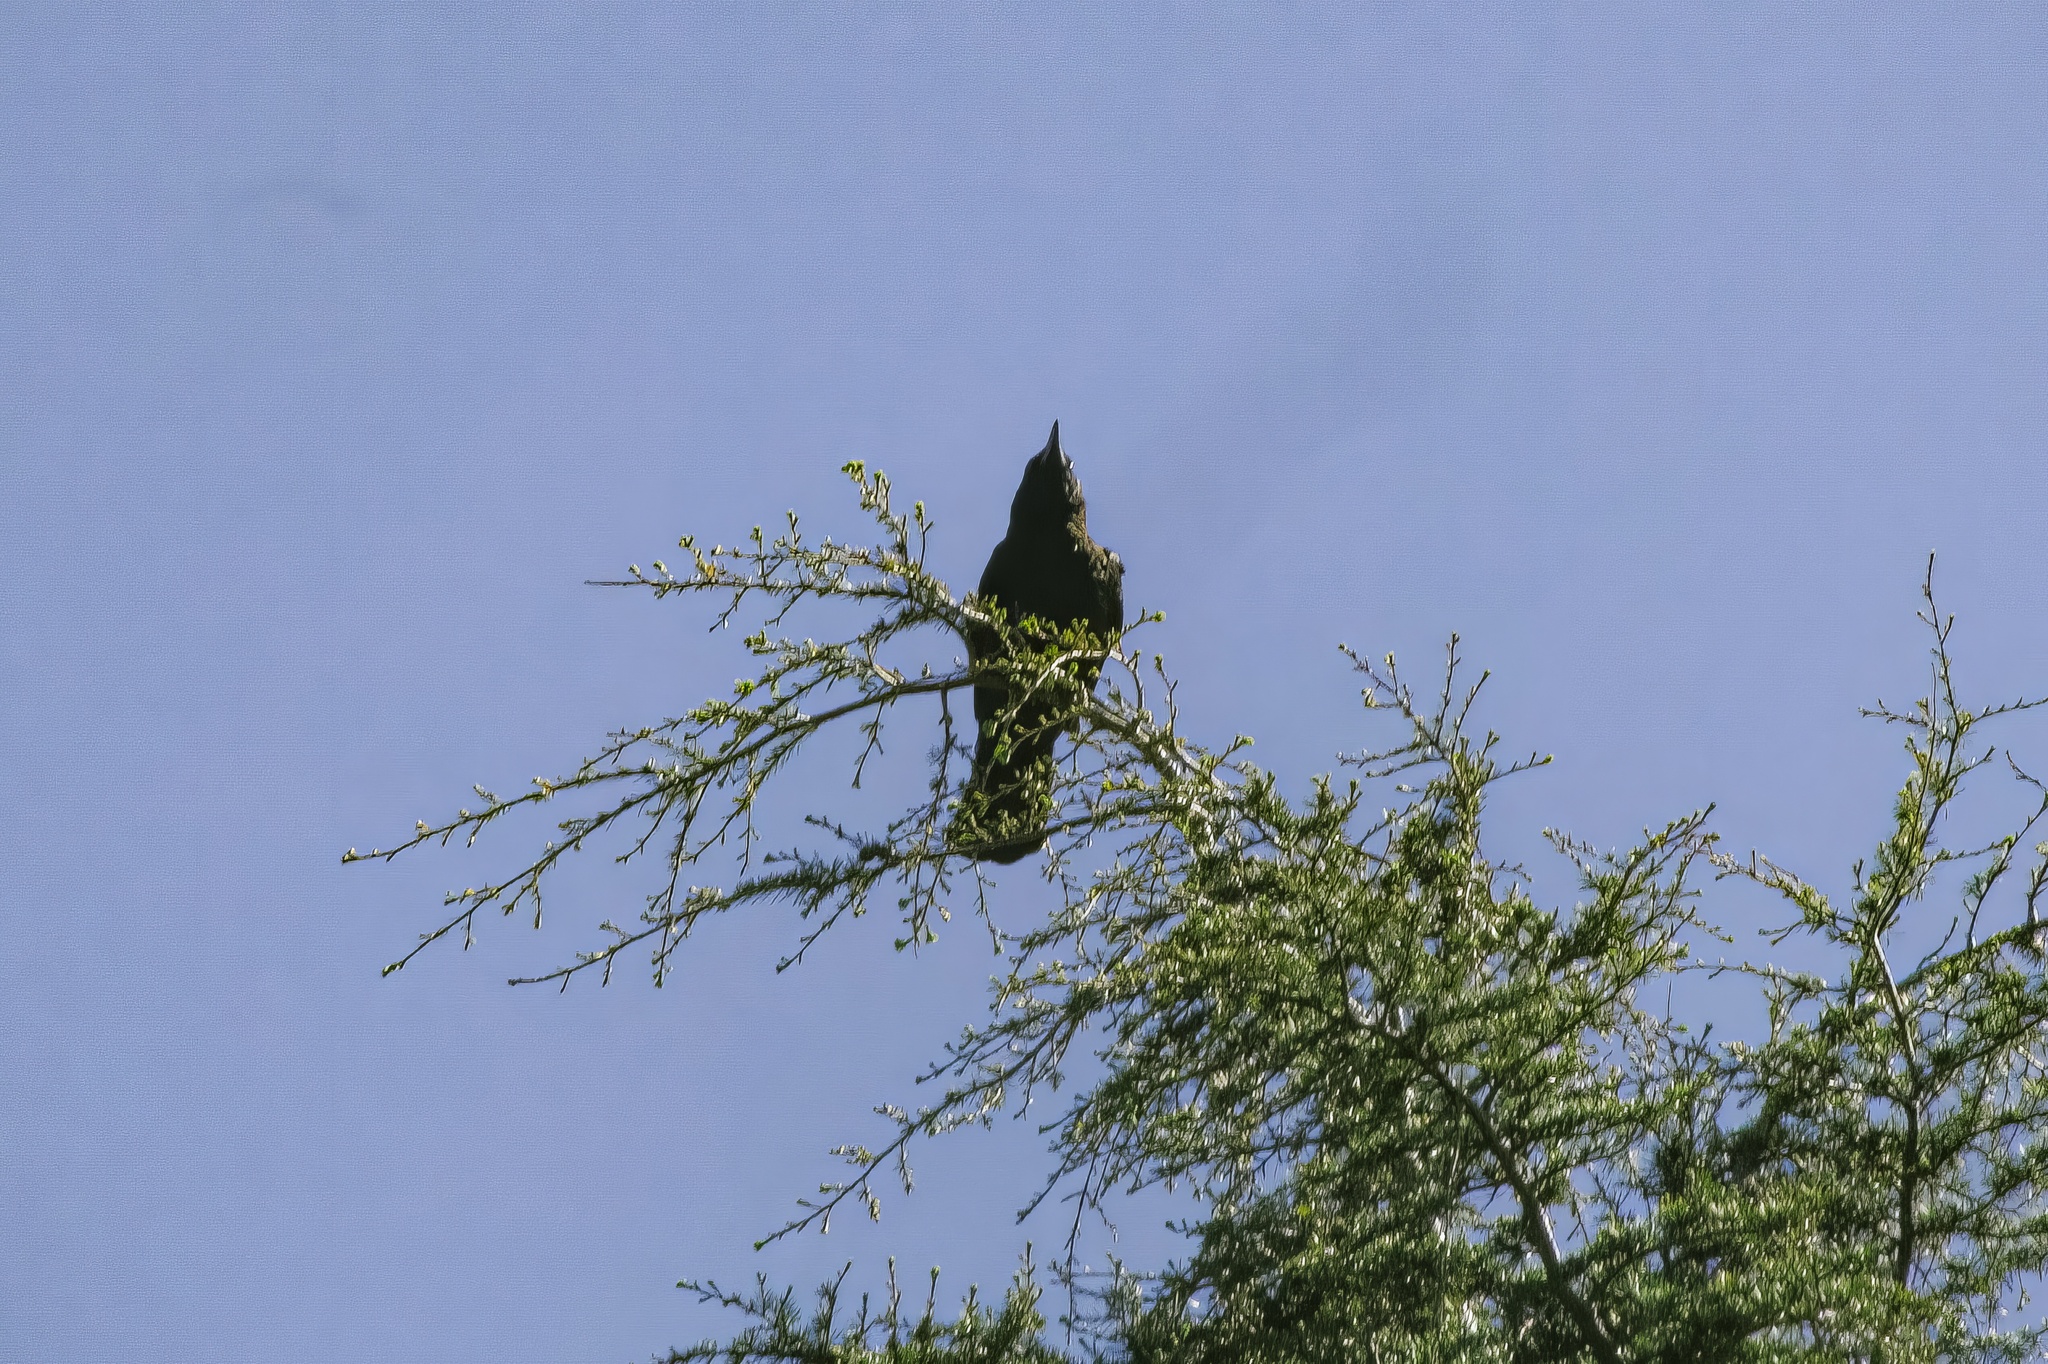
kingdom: Animalia
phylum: Chordata
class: Aves
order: Passeriformes
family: Corvidae
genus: Corvus
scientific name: Corvus corone
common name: Carrion crow
